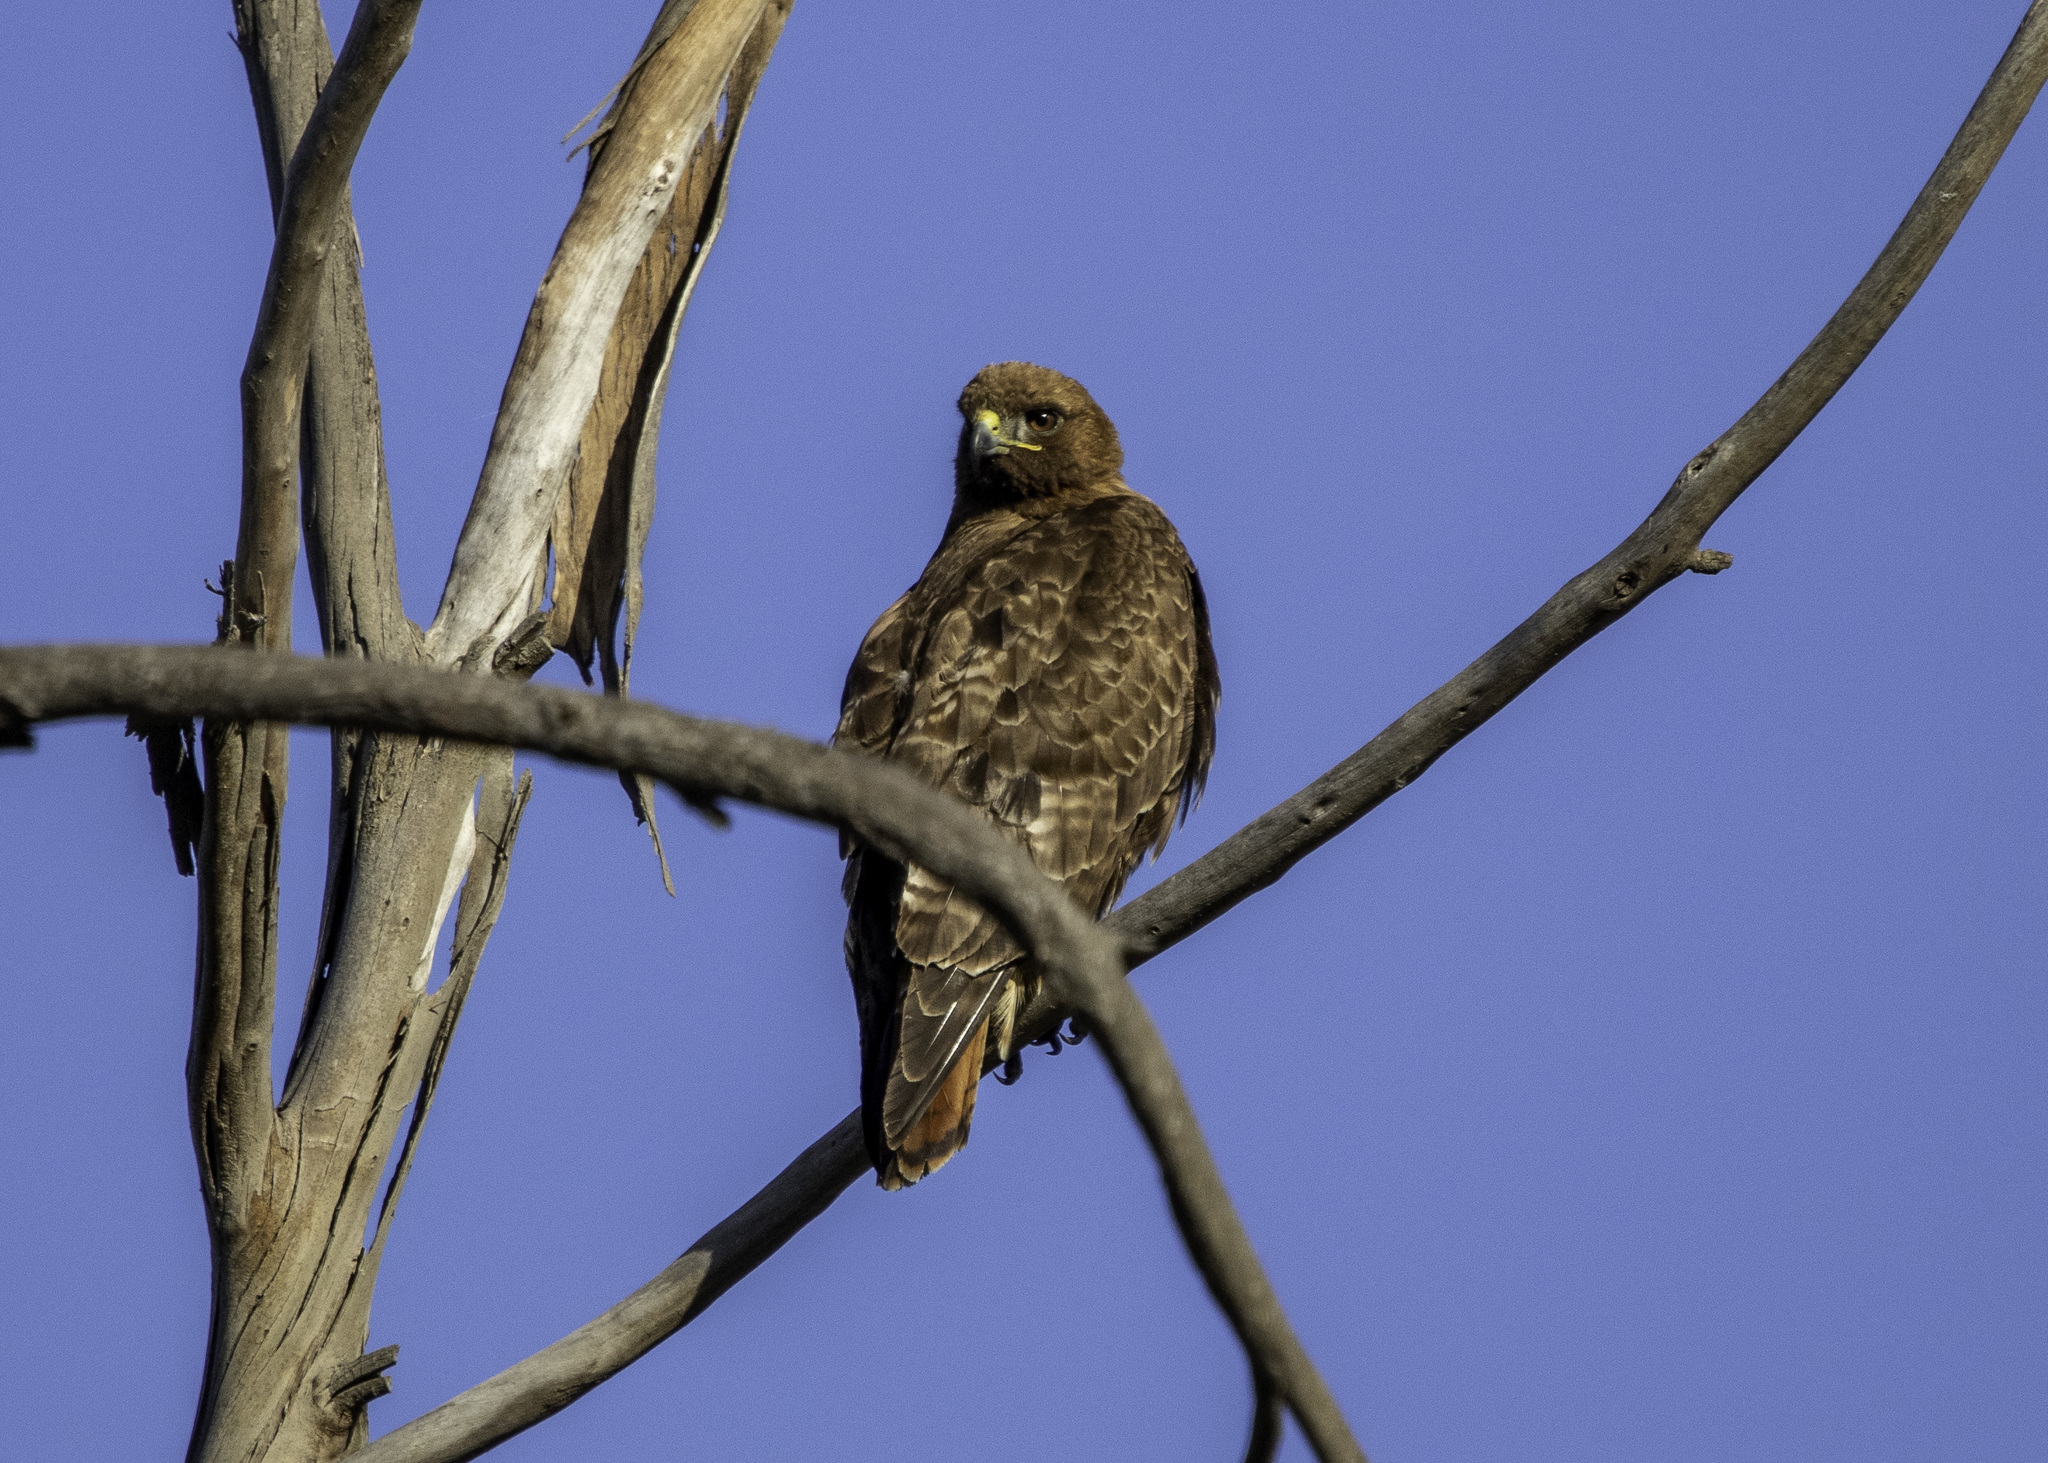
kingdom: Animalia
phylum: Chordata
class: Aves
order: Accipitriformes
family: Accipitridae
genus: Buteo
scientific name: Buteo jamaicensis
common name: Red-tailed hawk
